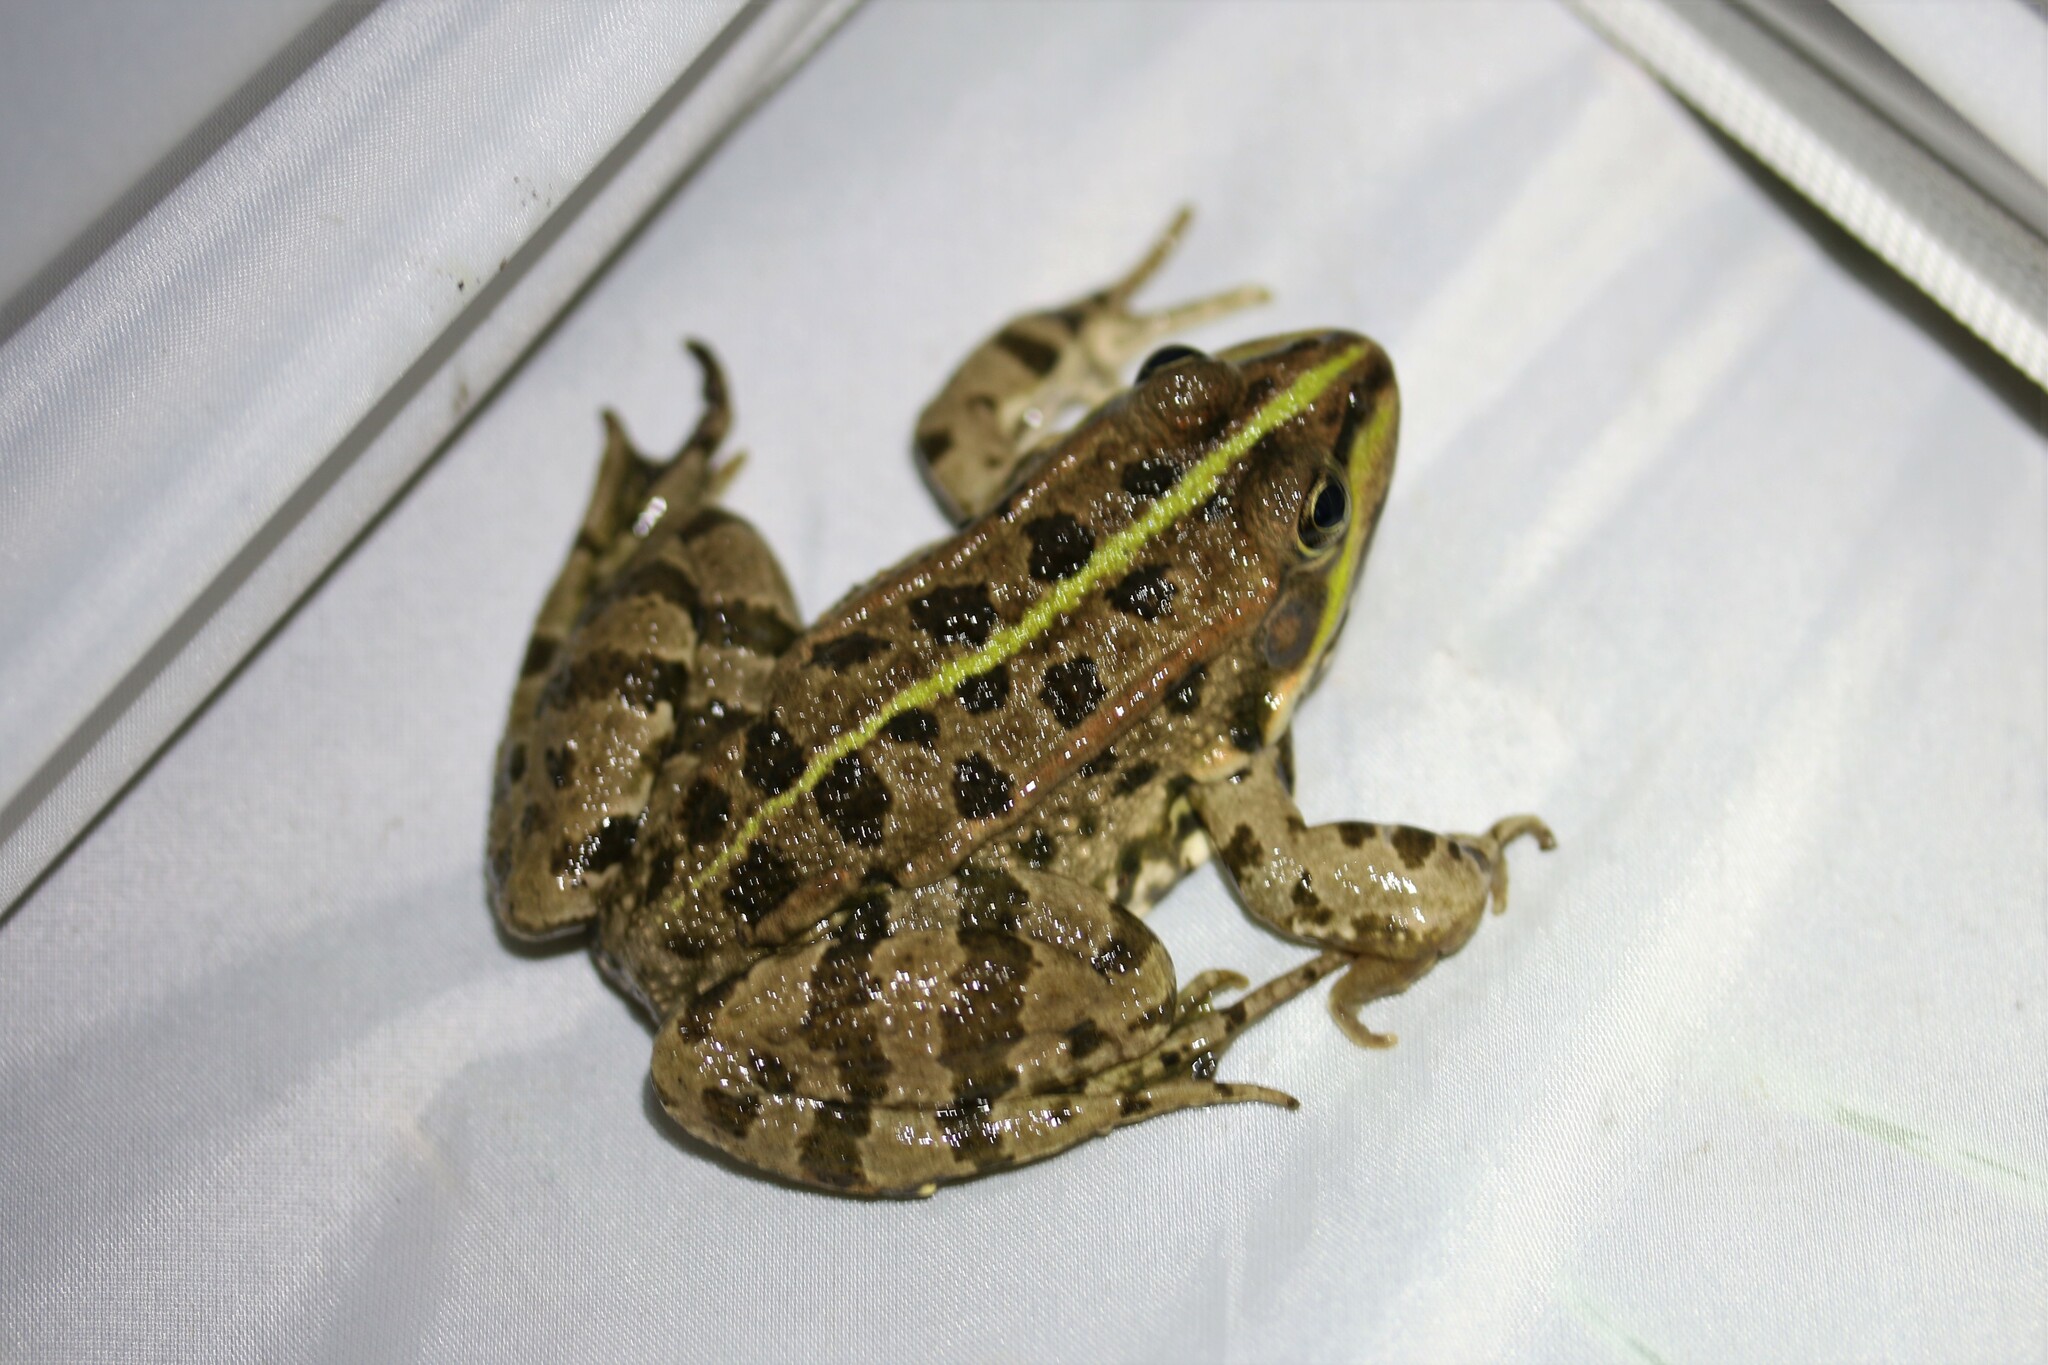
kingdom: Animalia
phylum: Chordata
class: Amphibia
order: Anura
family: Ranidae
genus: Pelophylax
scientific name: Pelophylax
